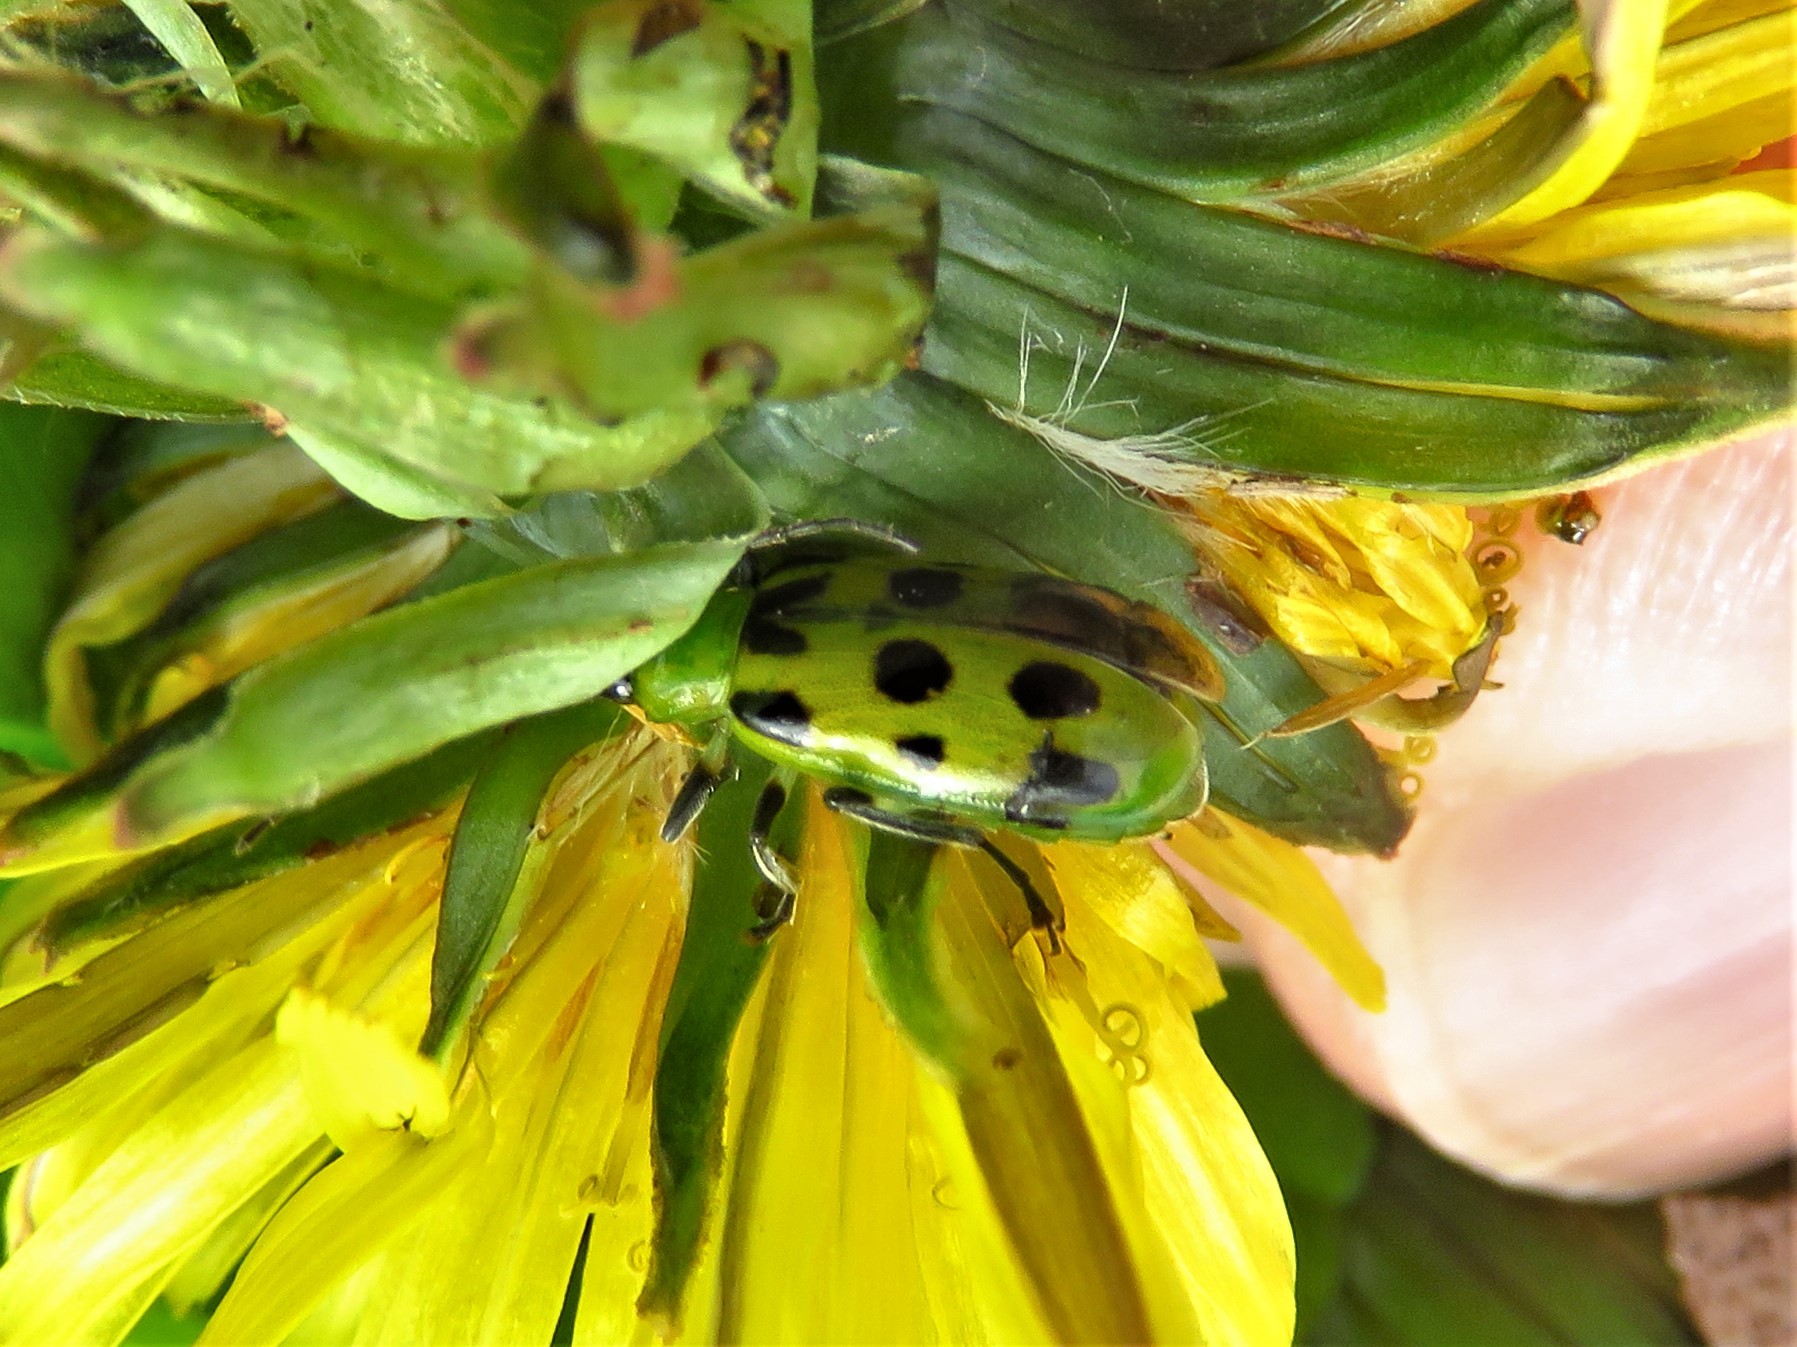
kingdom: Animalia
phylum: Arthropoda
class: Insecta
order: Coleoptera
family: Chrysomelidae
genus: Diabrotica
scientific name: Diabrotica undecimpunctata
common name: Spotted cucumber beetle
